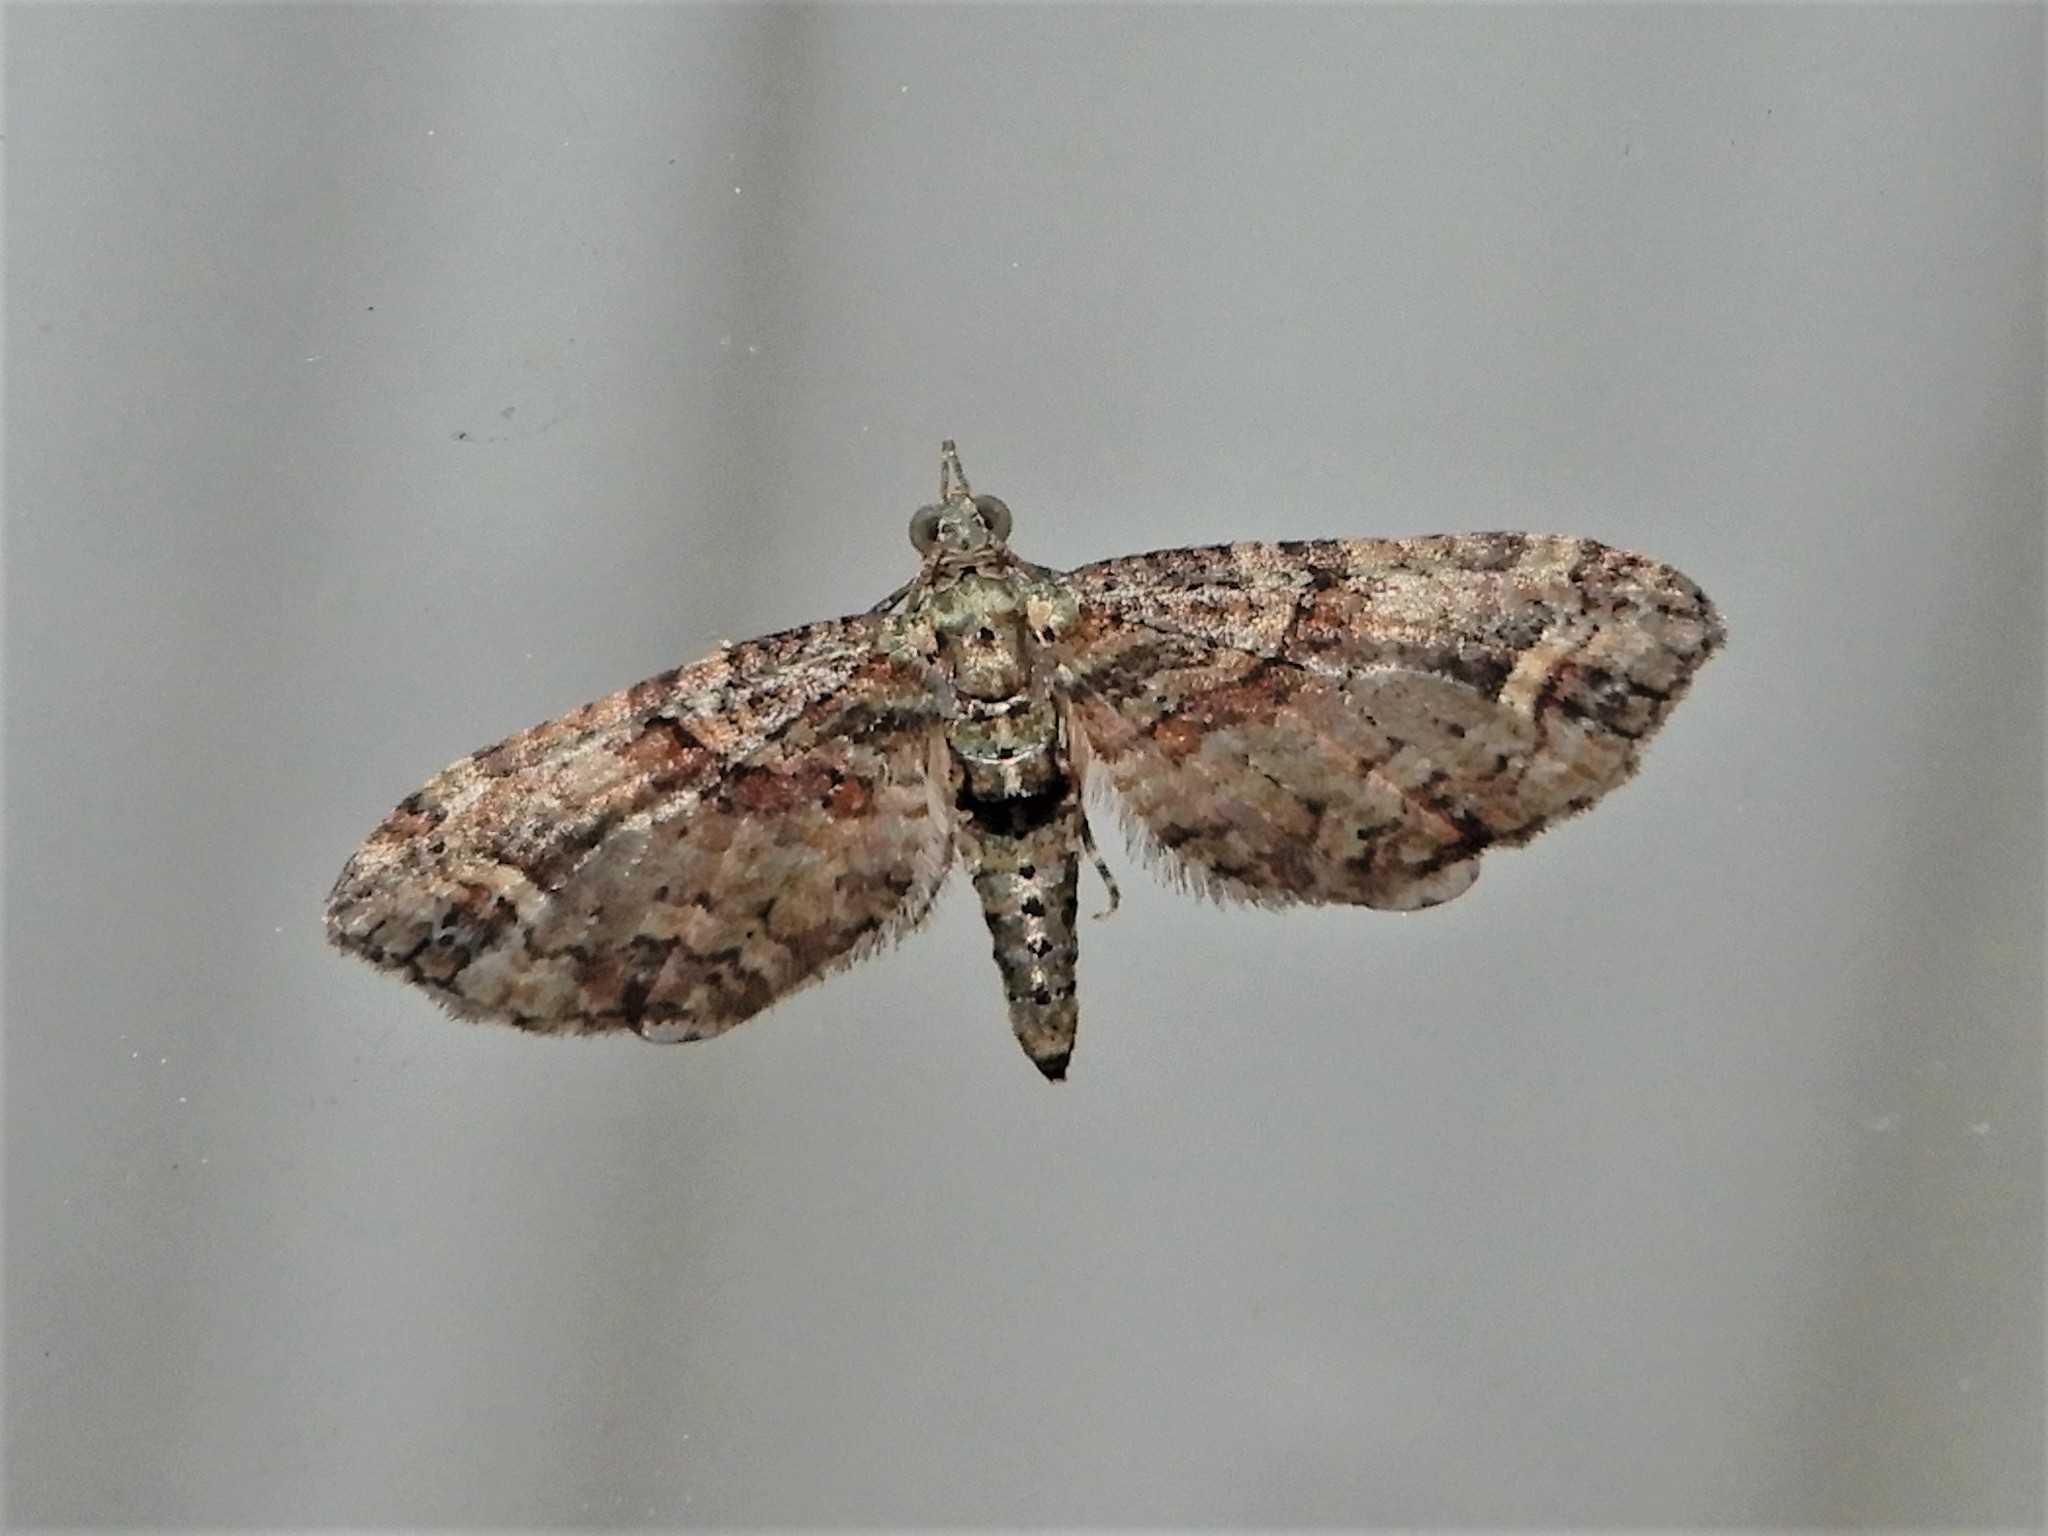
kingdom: Animalia
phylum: Arthropoda
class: Insecta
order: Lepidoptera
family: Geometridae
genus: Idaea
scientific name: Idaea mutanda
